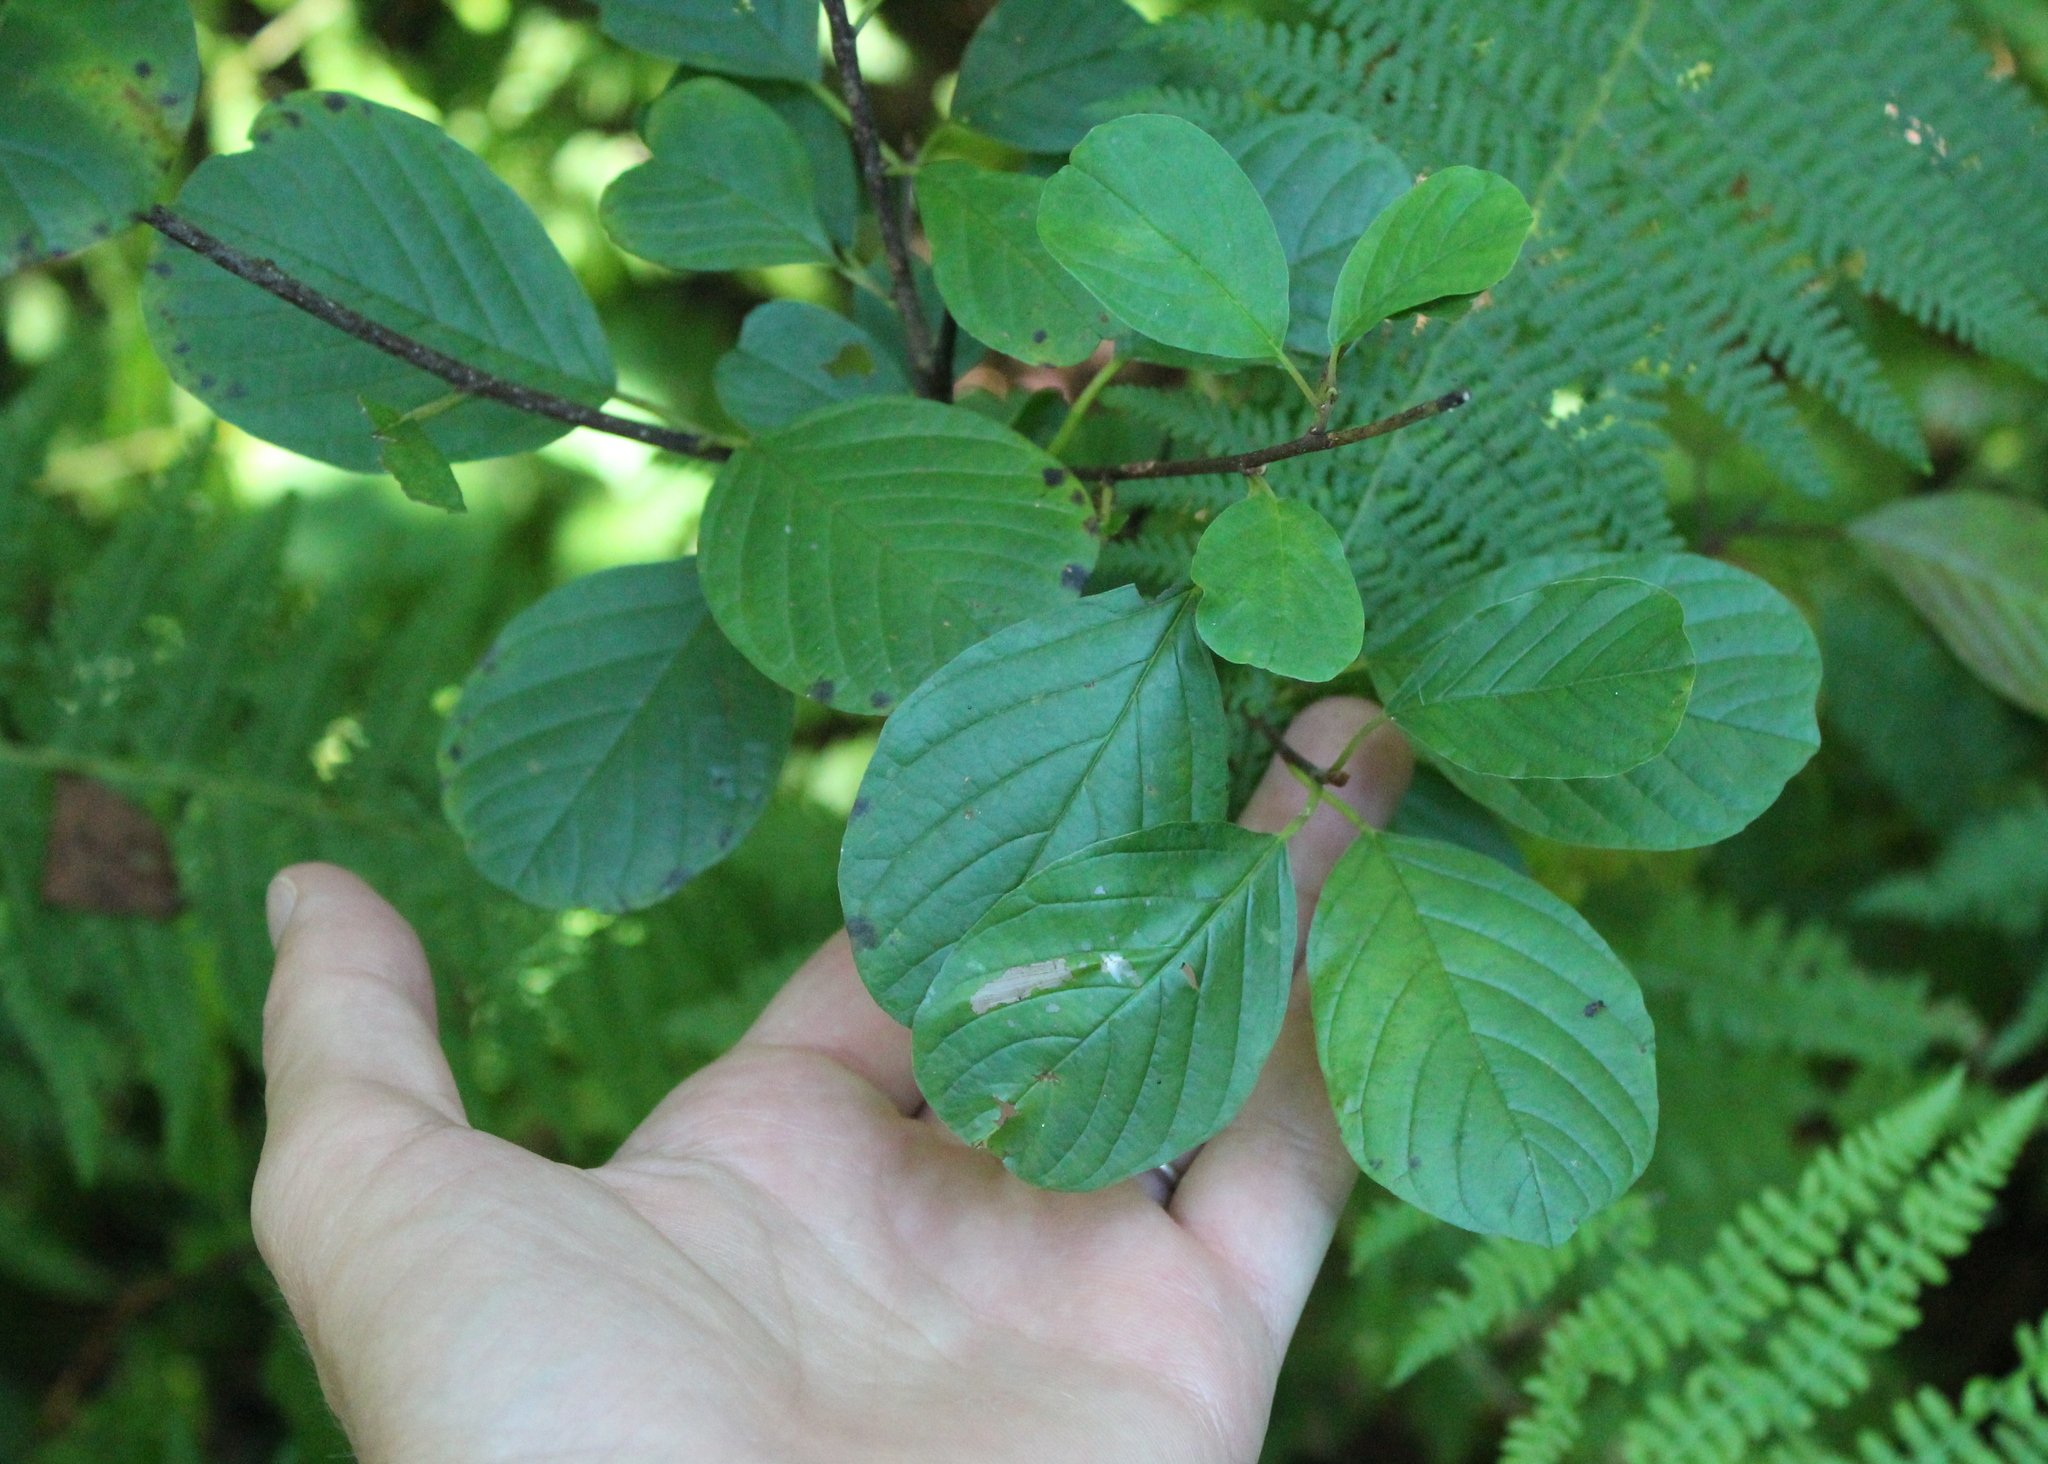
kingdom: Plantae
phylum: Tracheophyta
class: Magnoliopsida
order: Rosales
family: Rhamnaceae
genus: Frangula
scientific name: Frangula alnus
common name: Alder buckthorn
